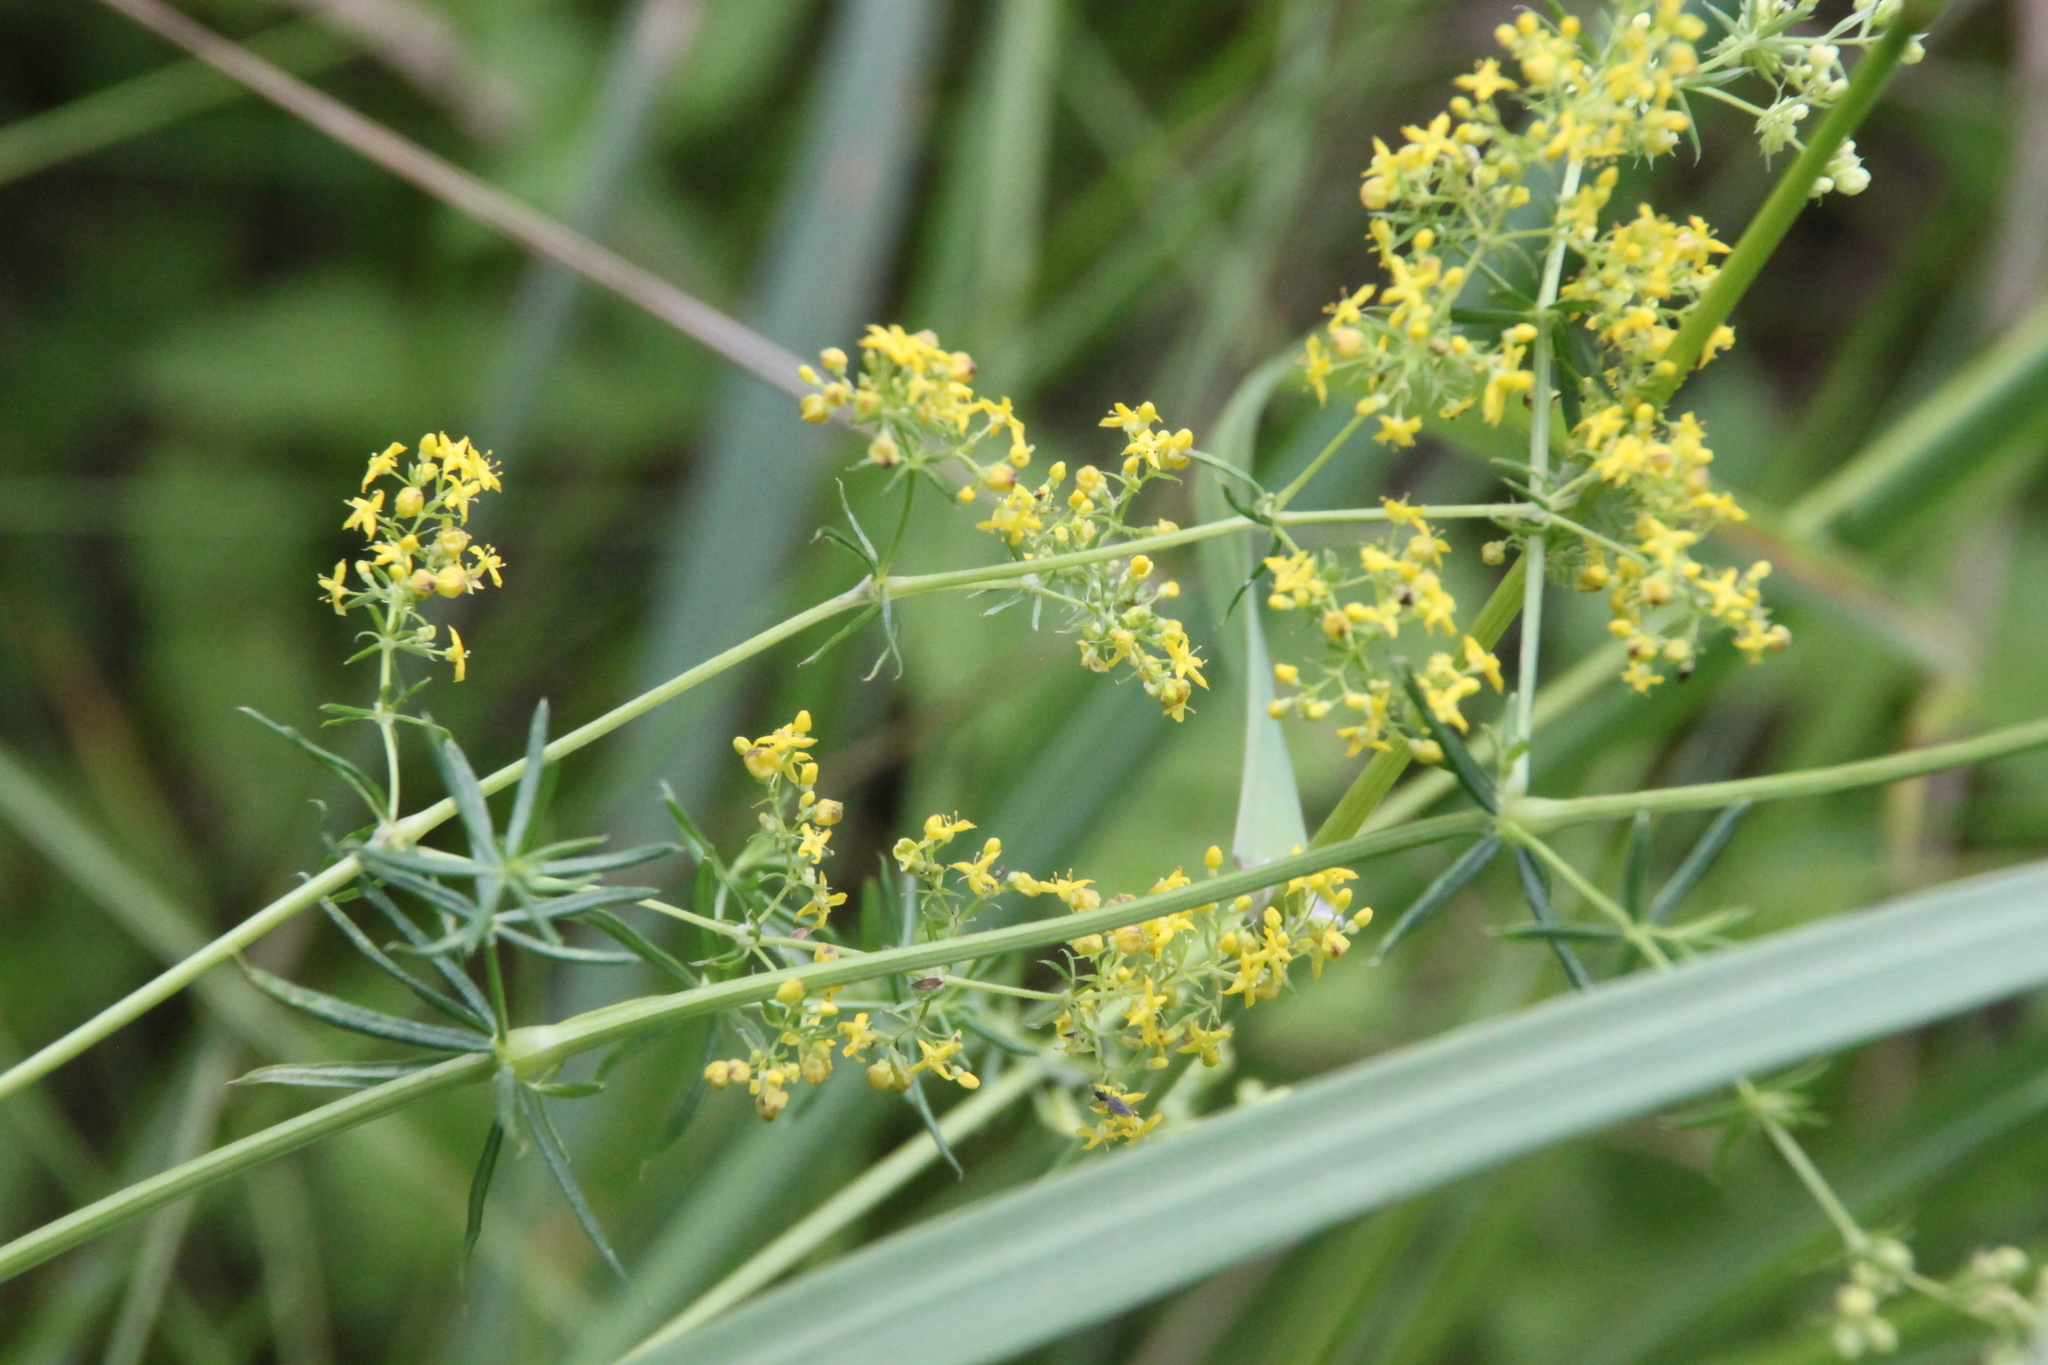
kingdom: Plantae
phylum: Tracheophyta
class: Magnoliopsida
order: Gentianales
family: Rubiaceae
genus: Galium
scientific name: Galium verum
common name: Lady's bedstraw
